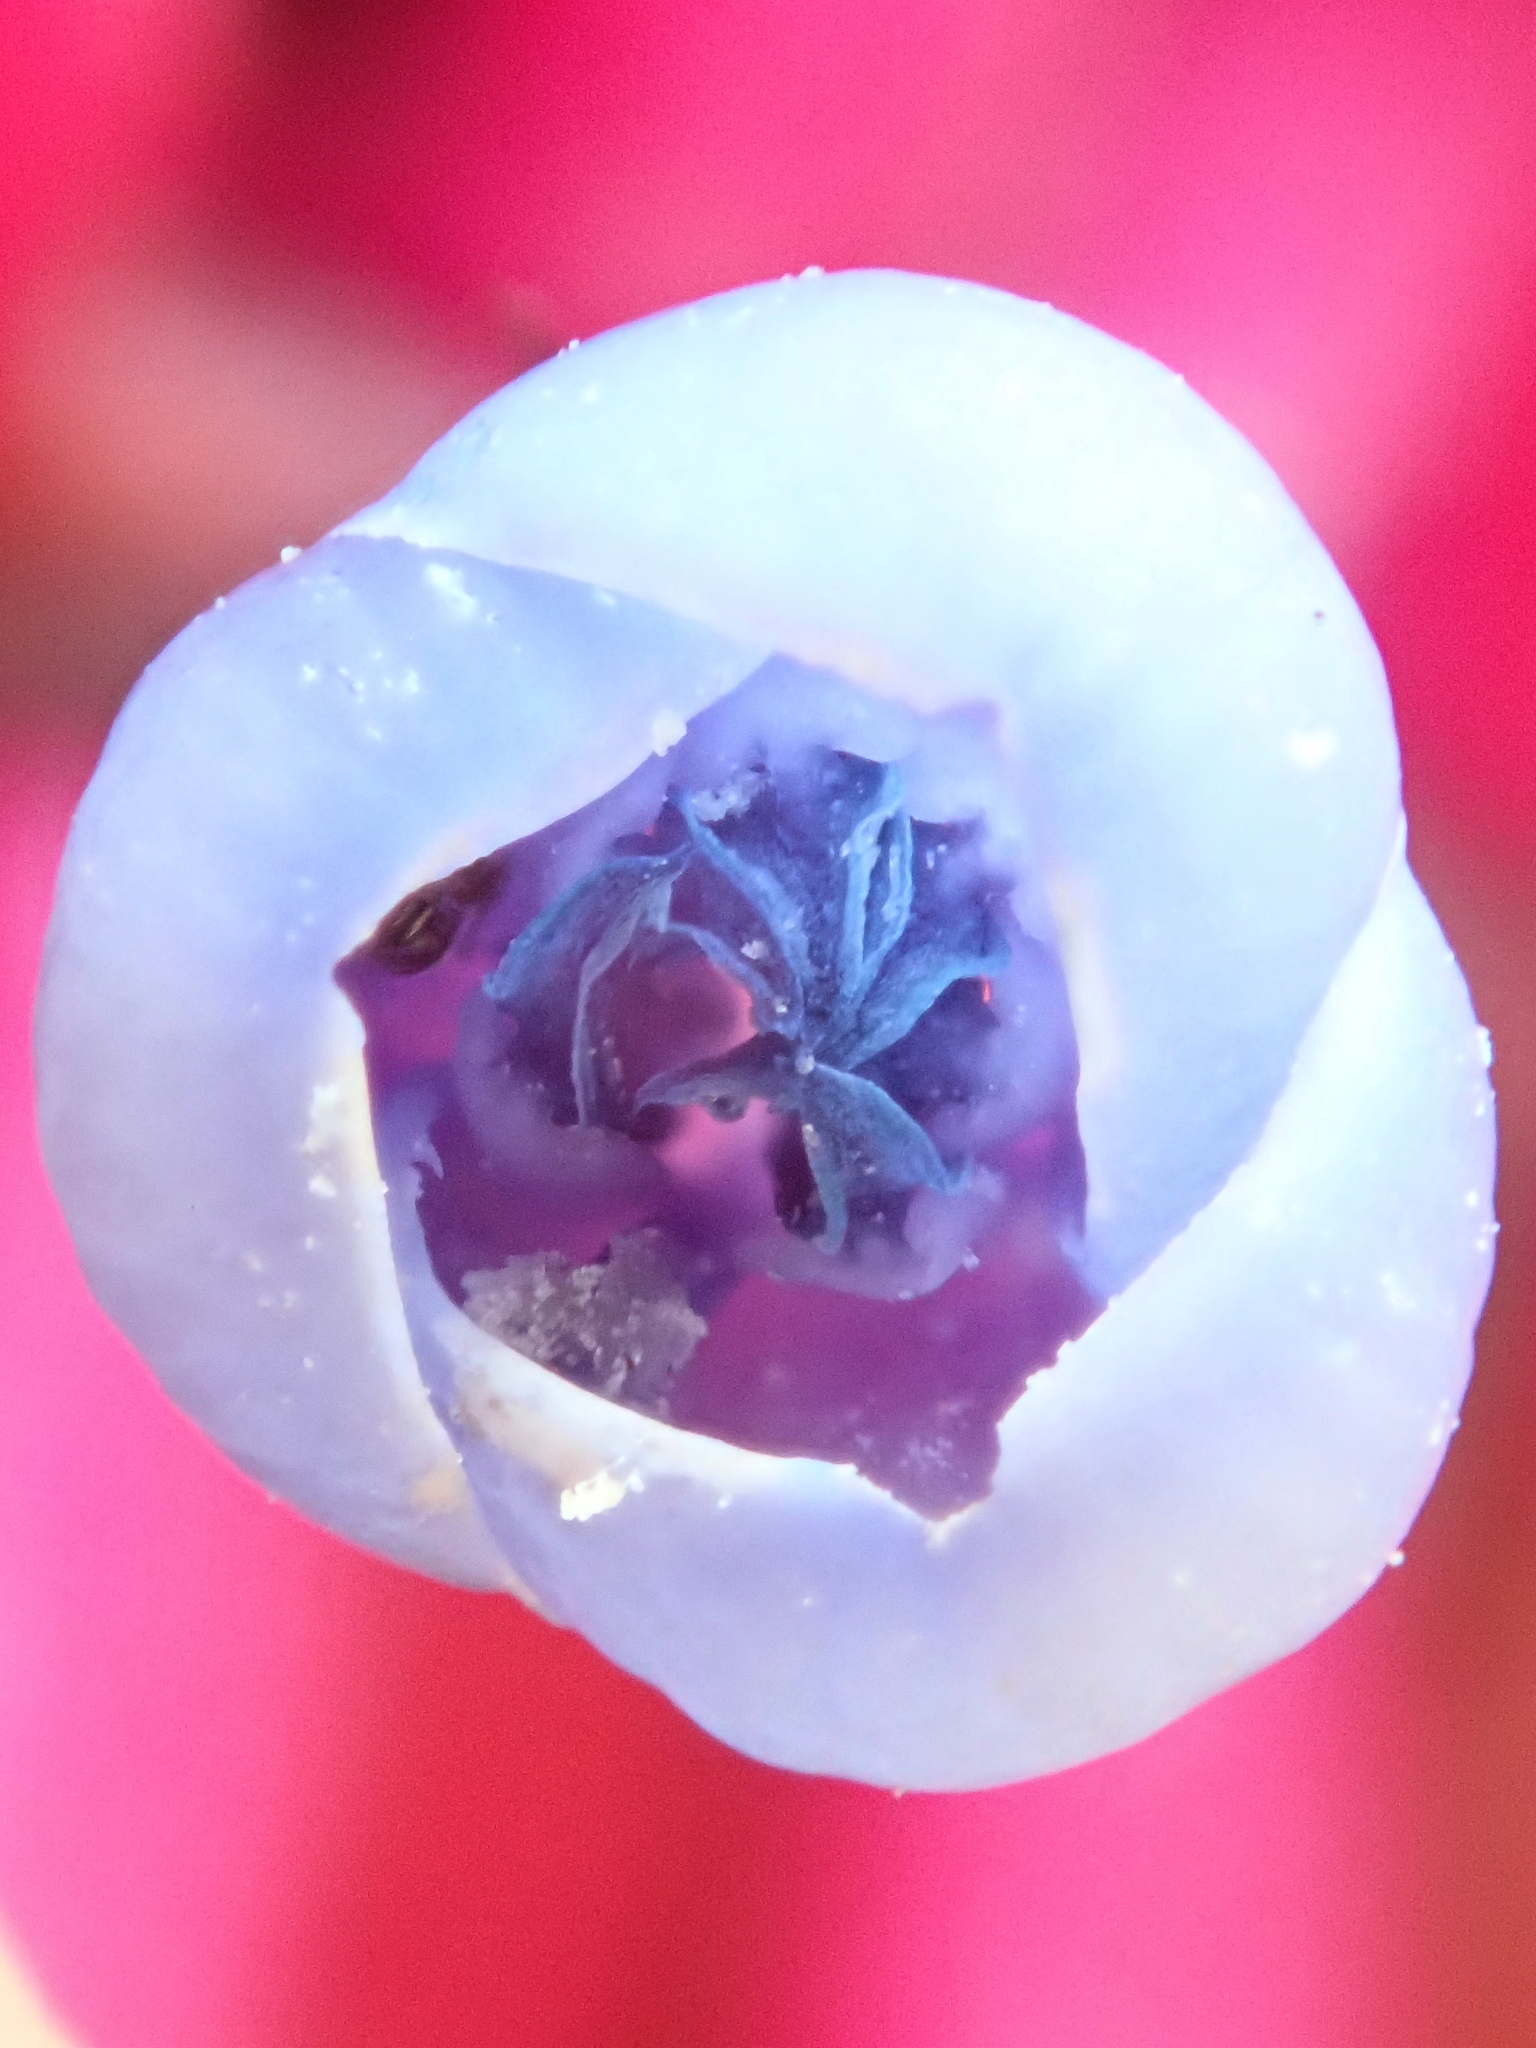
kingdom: Plantae
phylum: Tracheophyta
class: Liliopsida
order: Poales
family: Bromeliaceae
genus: Aechmea
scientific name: Aechmea gamosepala
